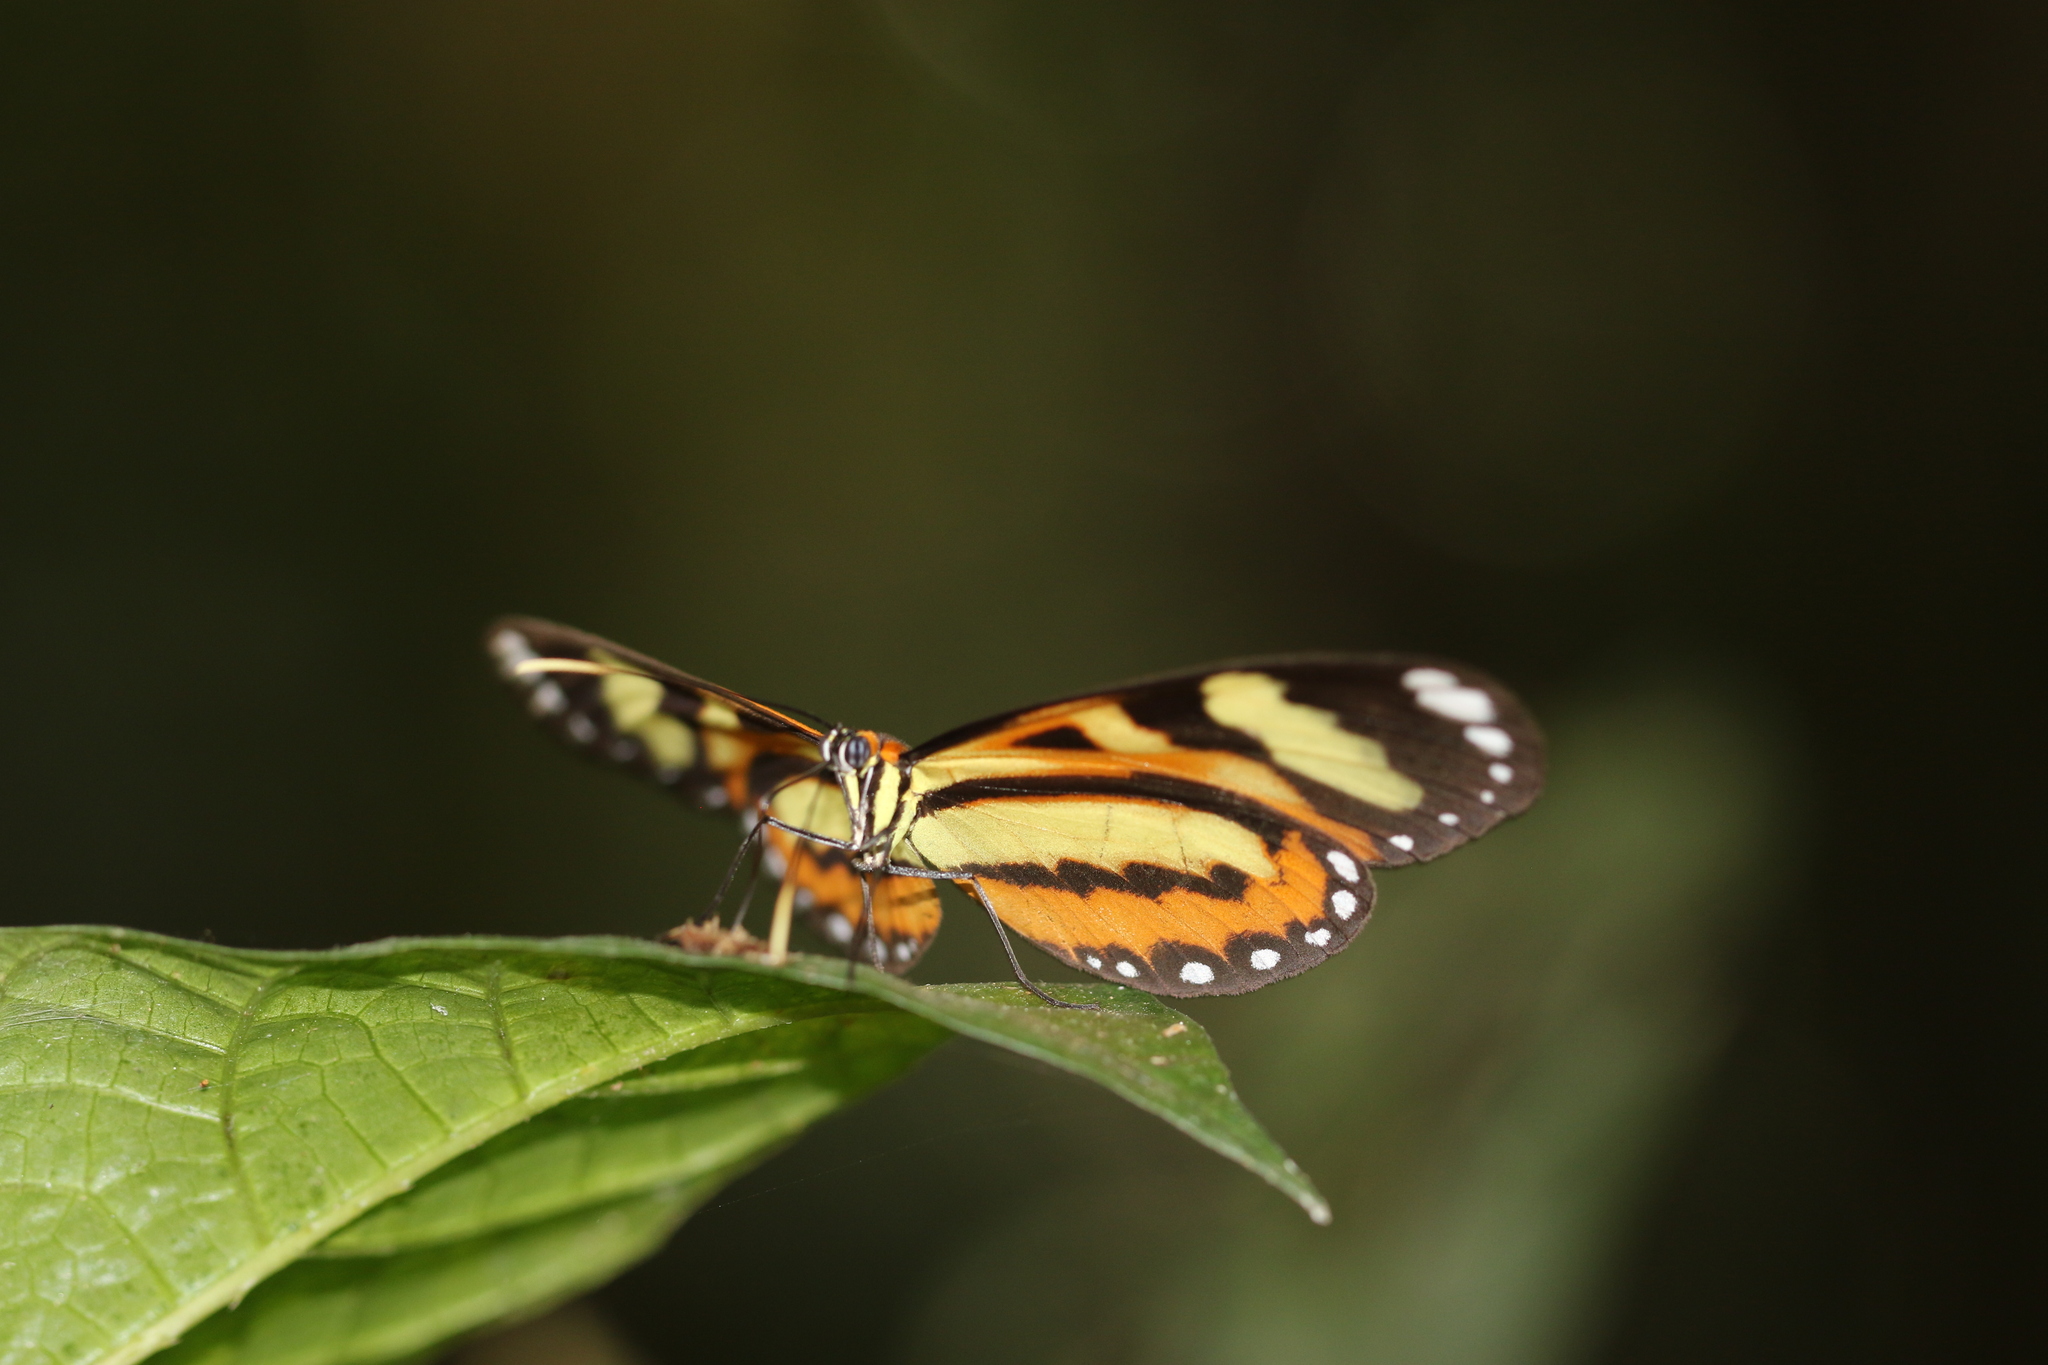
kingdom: Animalia
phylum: Arthropoda
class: Insecta
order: Lepidoptera
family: Nymphalidae
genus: Hypothyris
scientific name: Hypothyris ninonia
